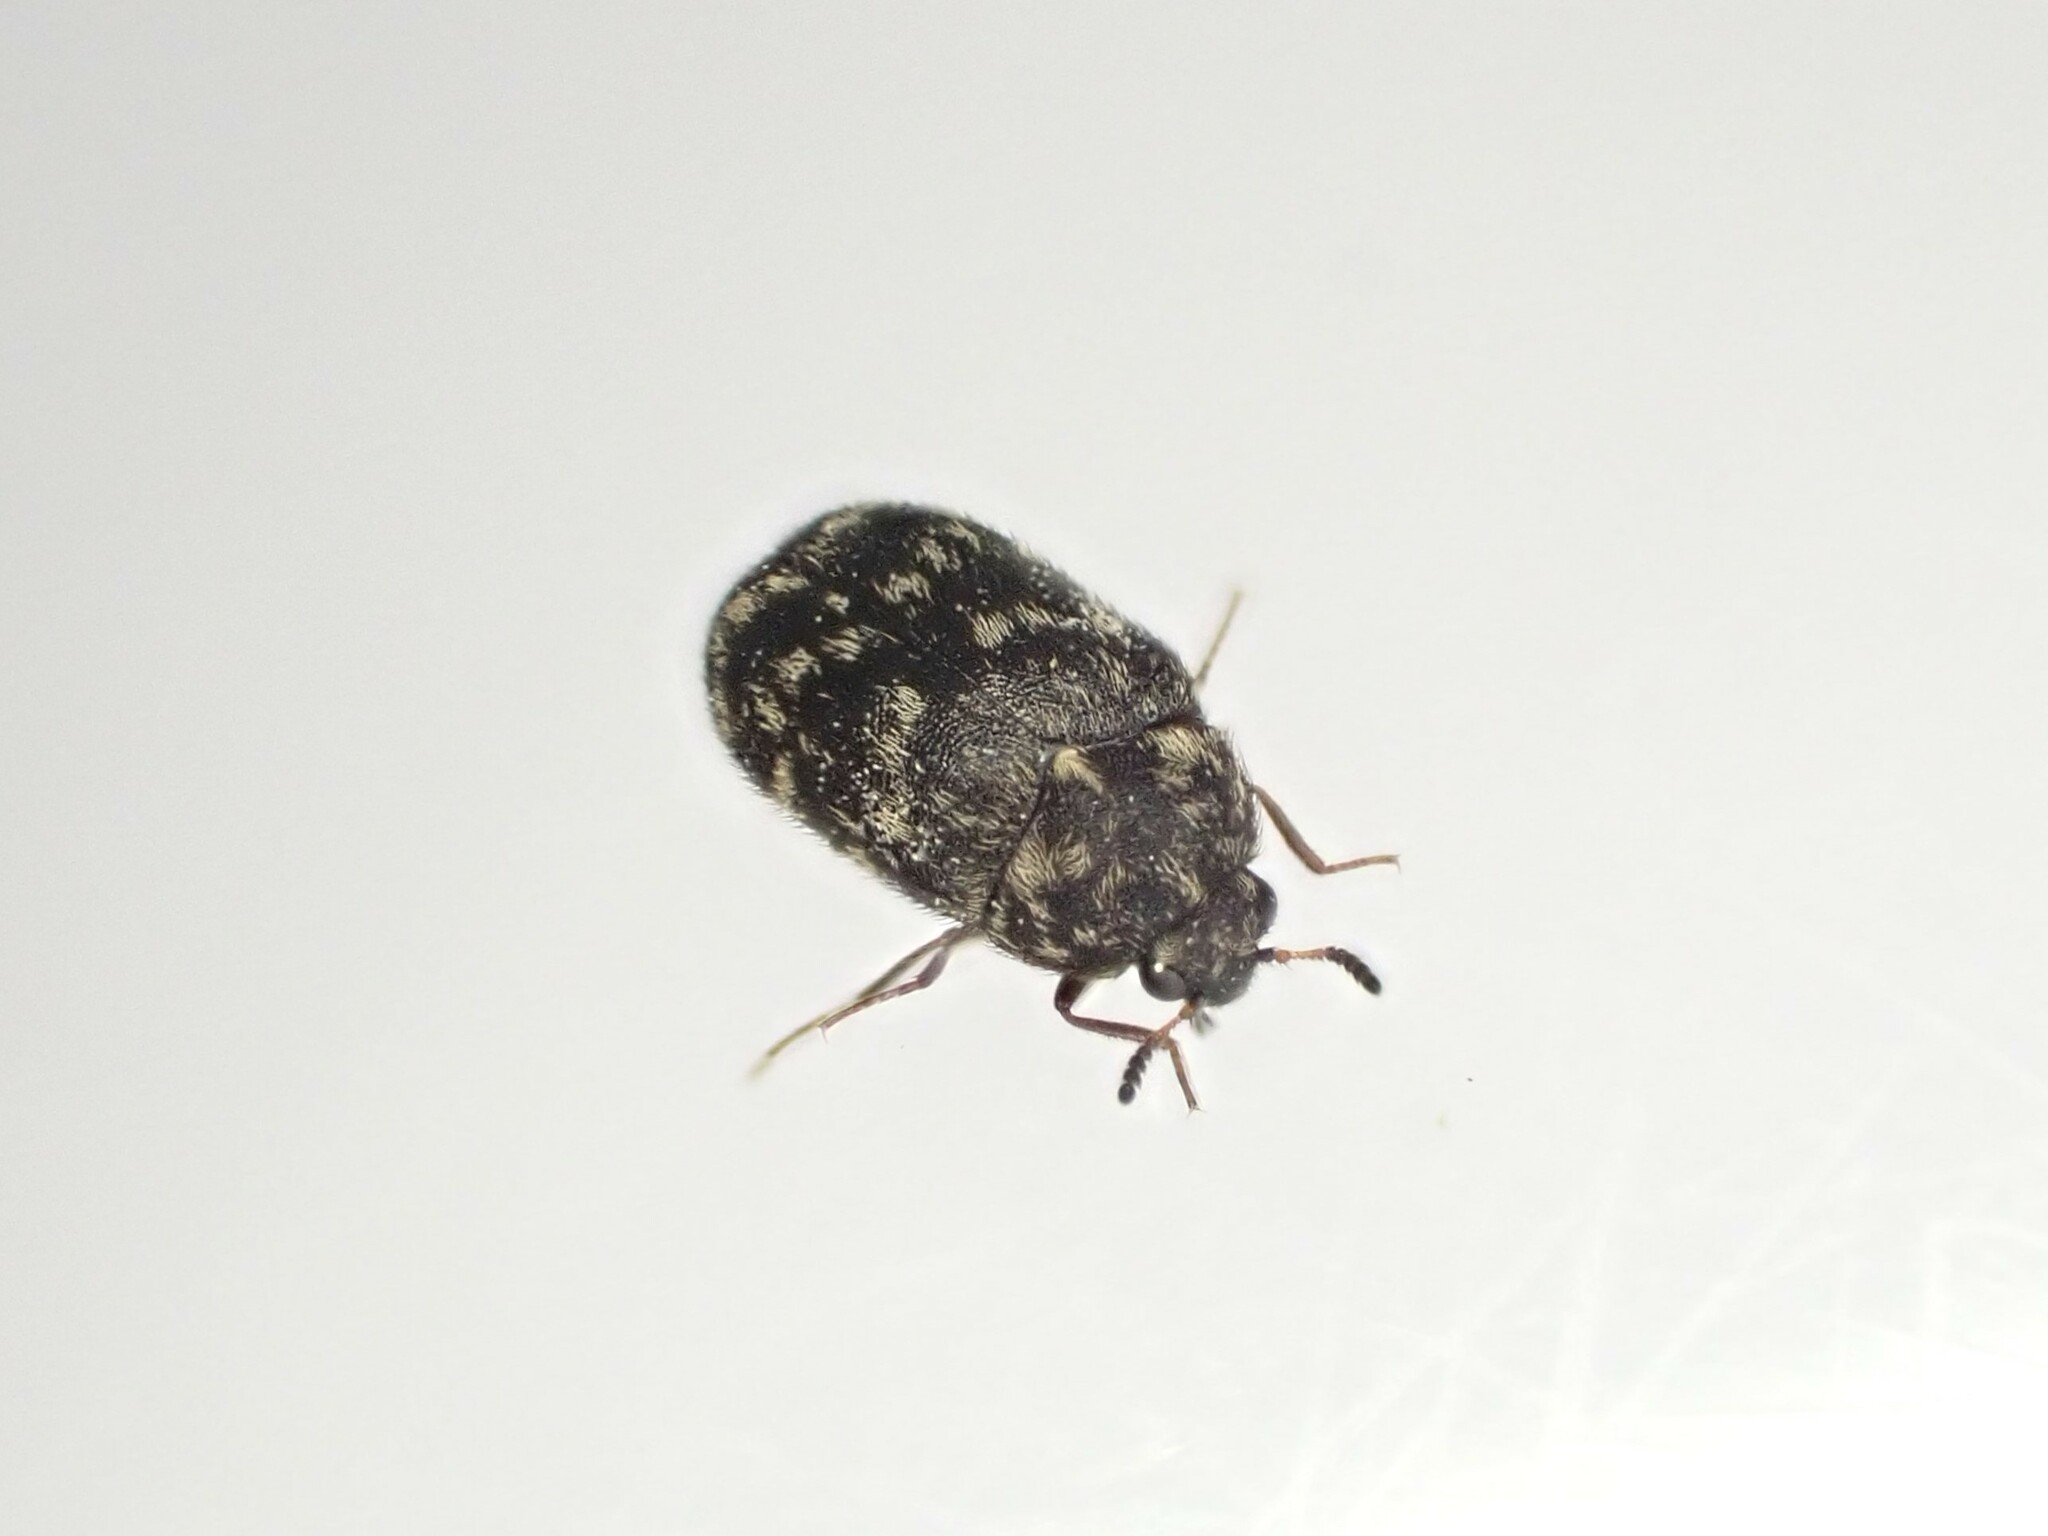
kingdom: Animalia
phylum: Arthropoda
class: Insecta
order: Coleoptera
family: Dermestidae
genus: Anthrenocerus
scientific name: Anthrenocerus australis
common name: Australian carpet beetle
